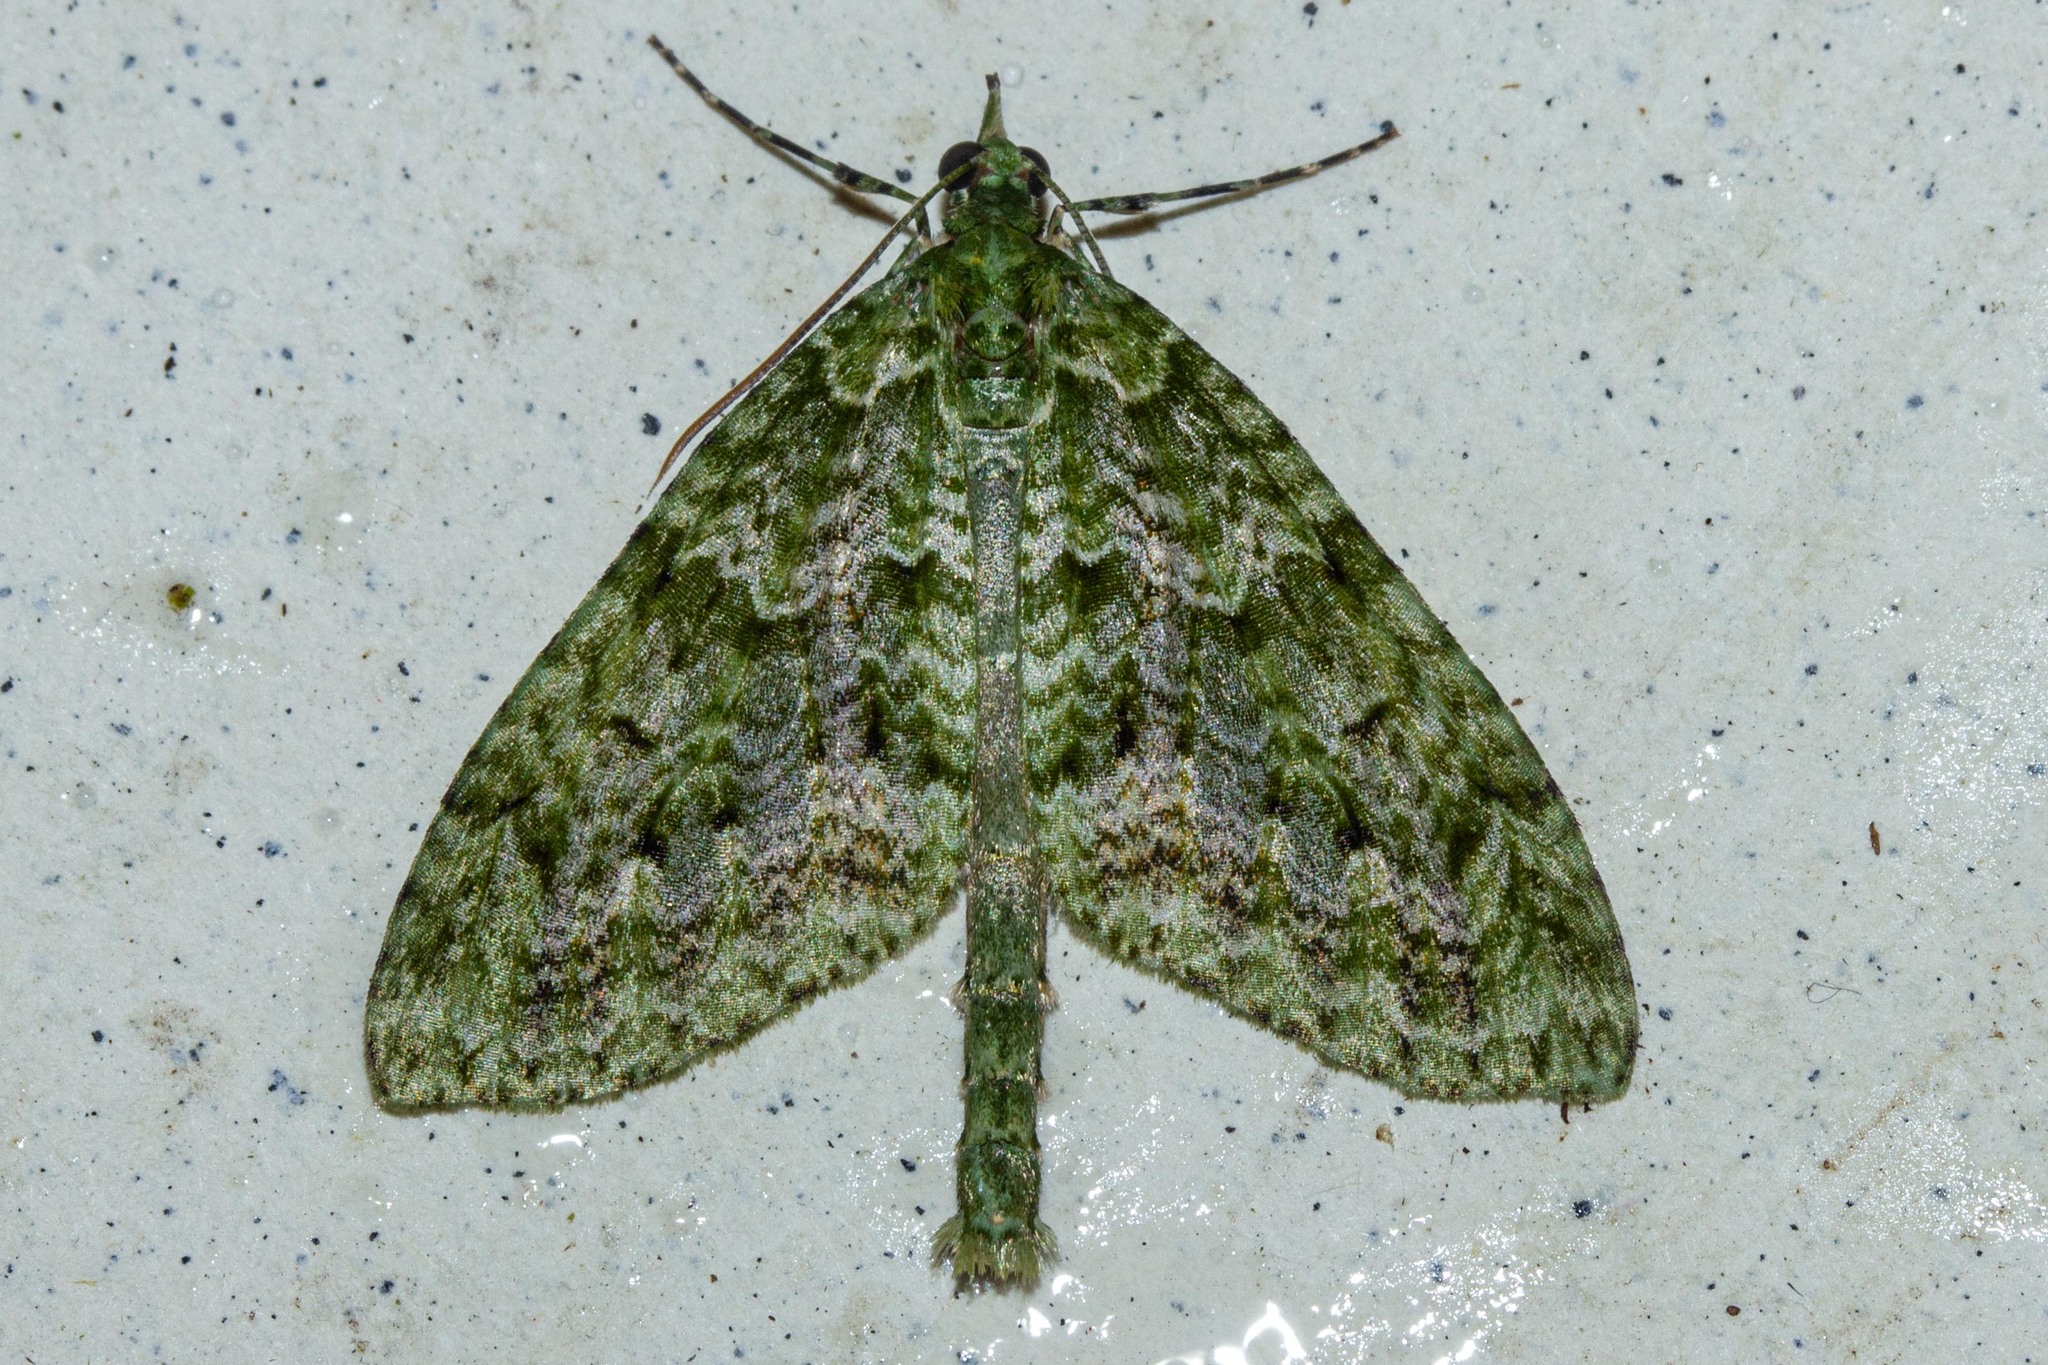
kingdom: Animalia
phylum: Arthropoda
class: Insecta
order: Lepidoptera
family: Geometridae
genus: Tatosoma
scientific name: Tatosoma tipulata
